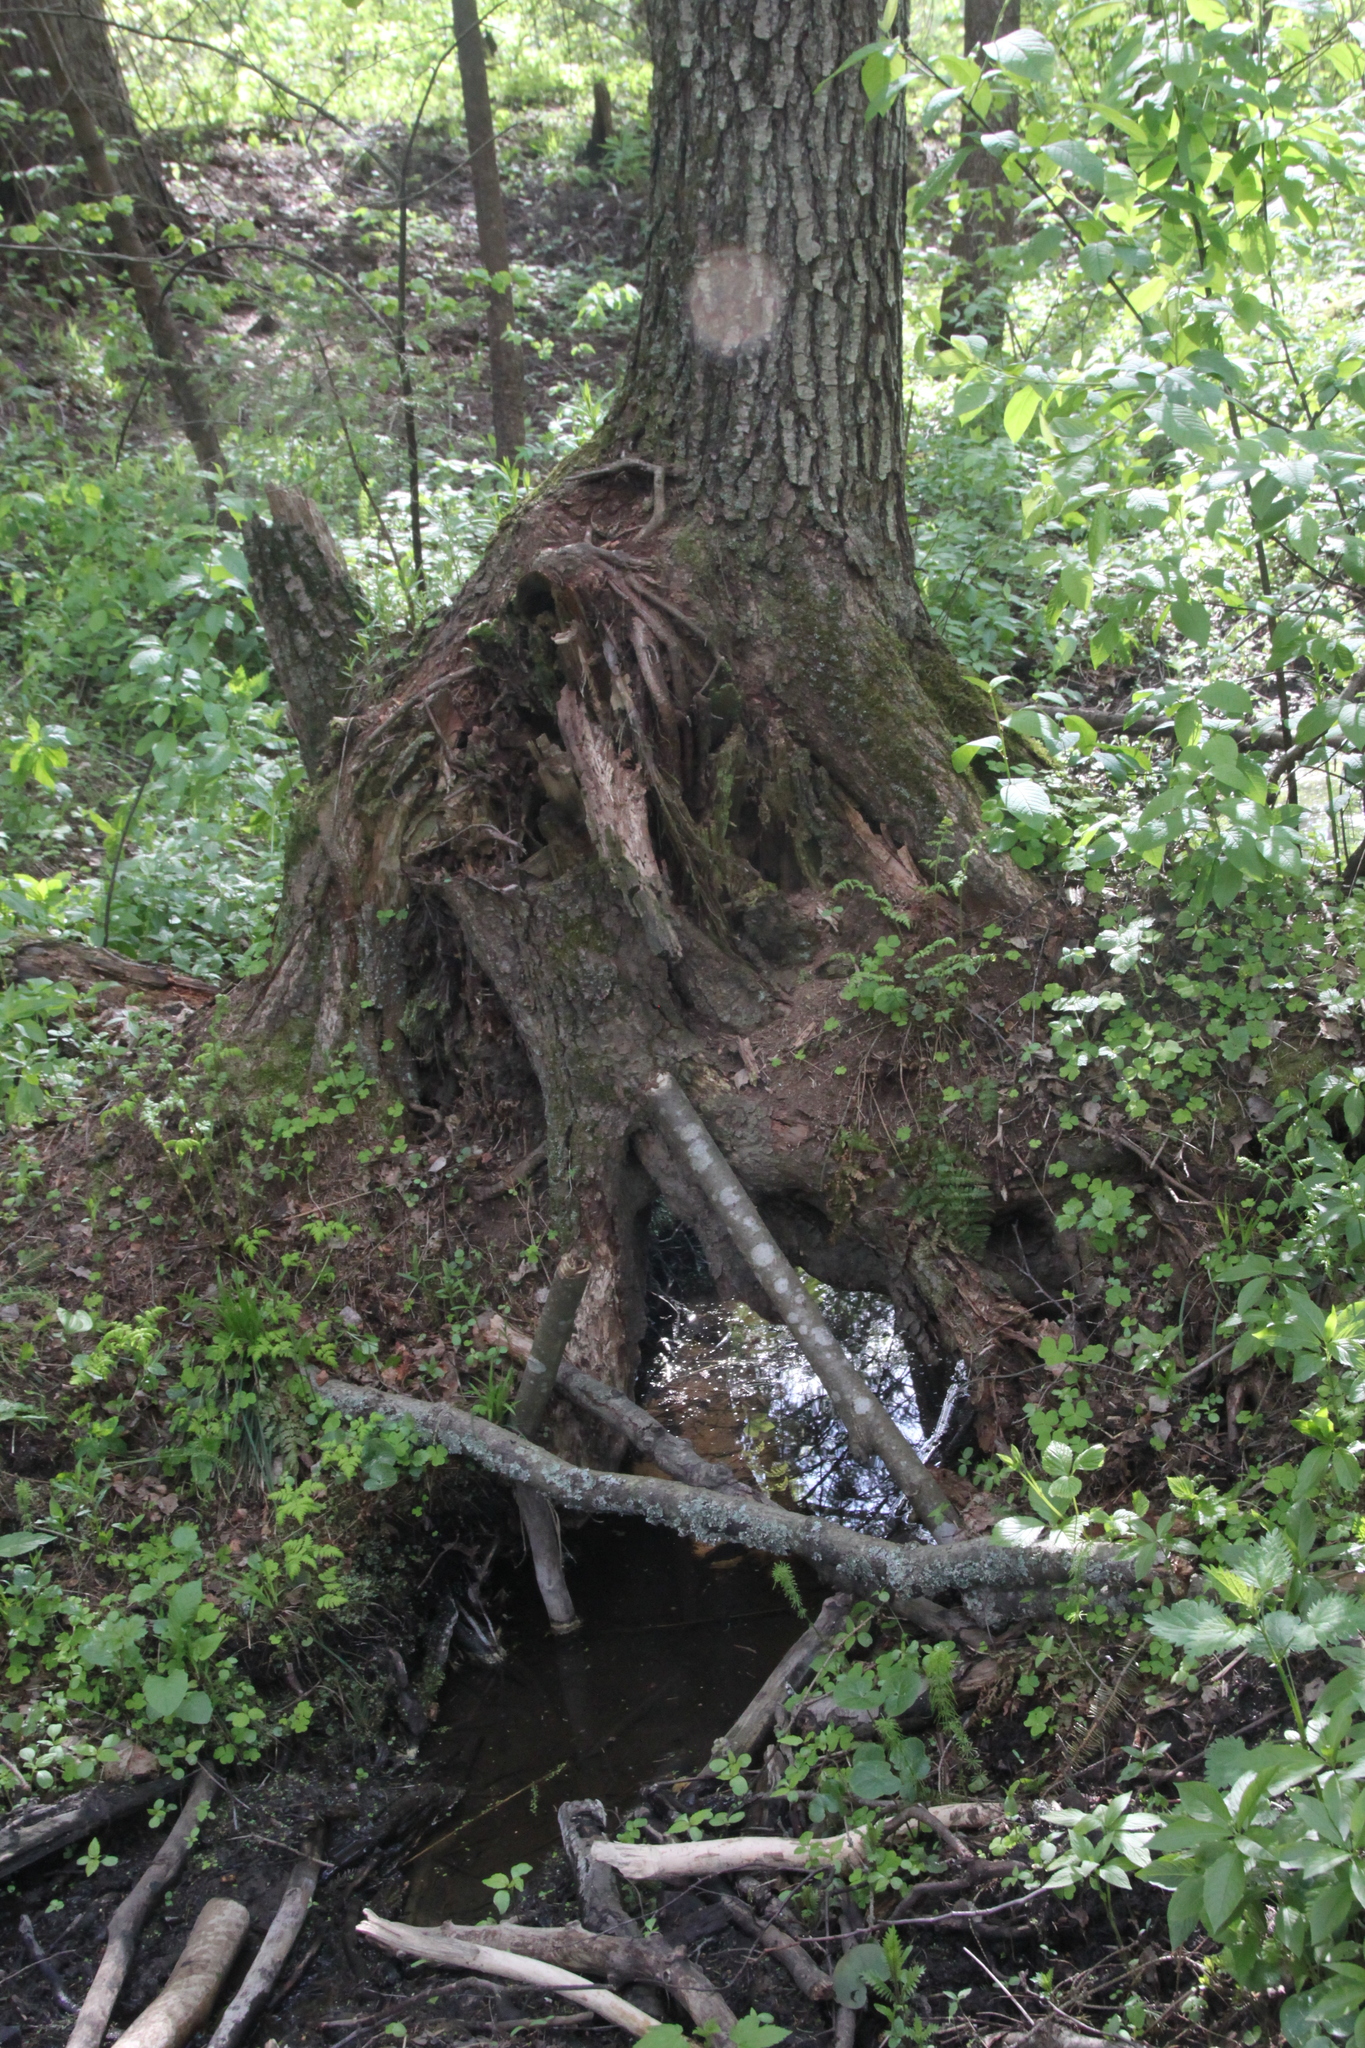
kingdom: Plantae
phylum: Tracheophyta
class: Magnoliopsida
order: Fagales
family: Betulaceae
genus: Alnus
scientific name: Alnus glutinosa
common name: Black alder
